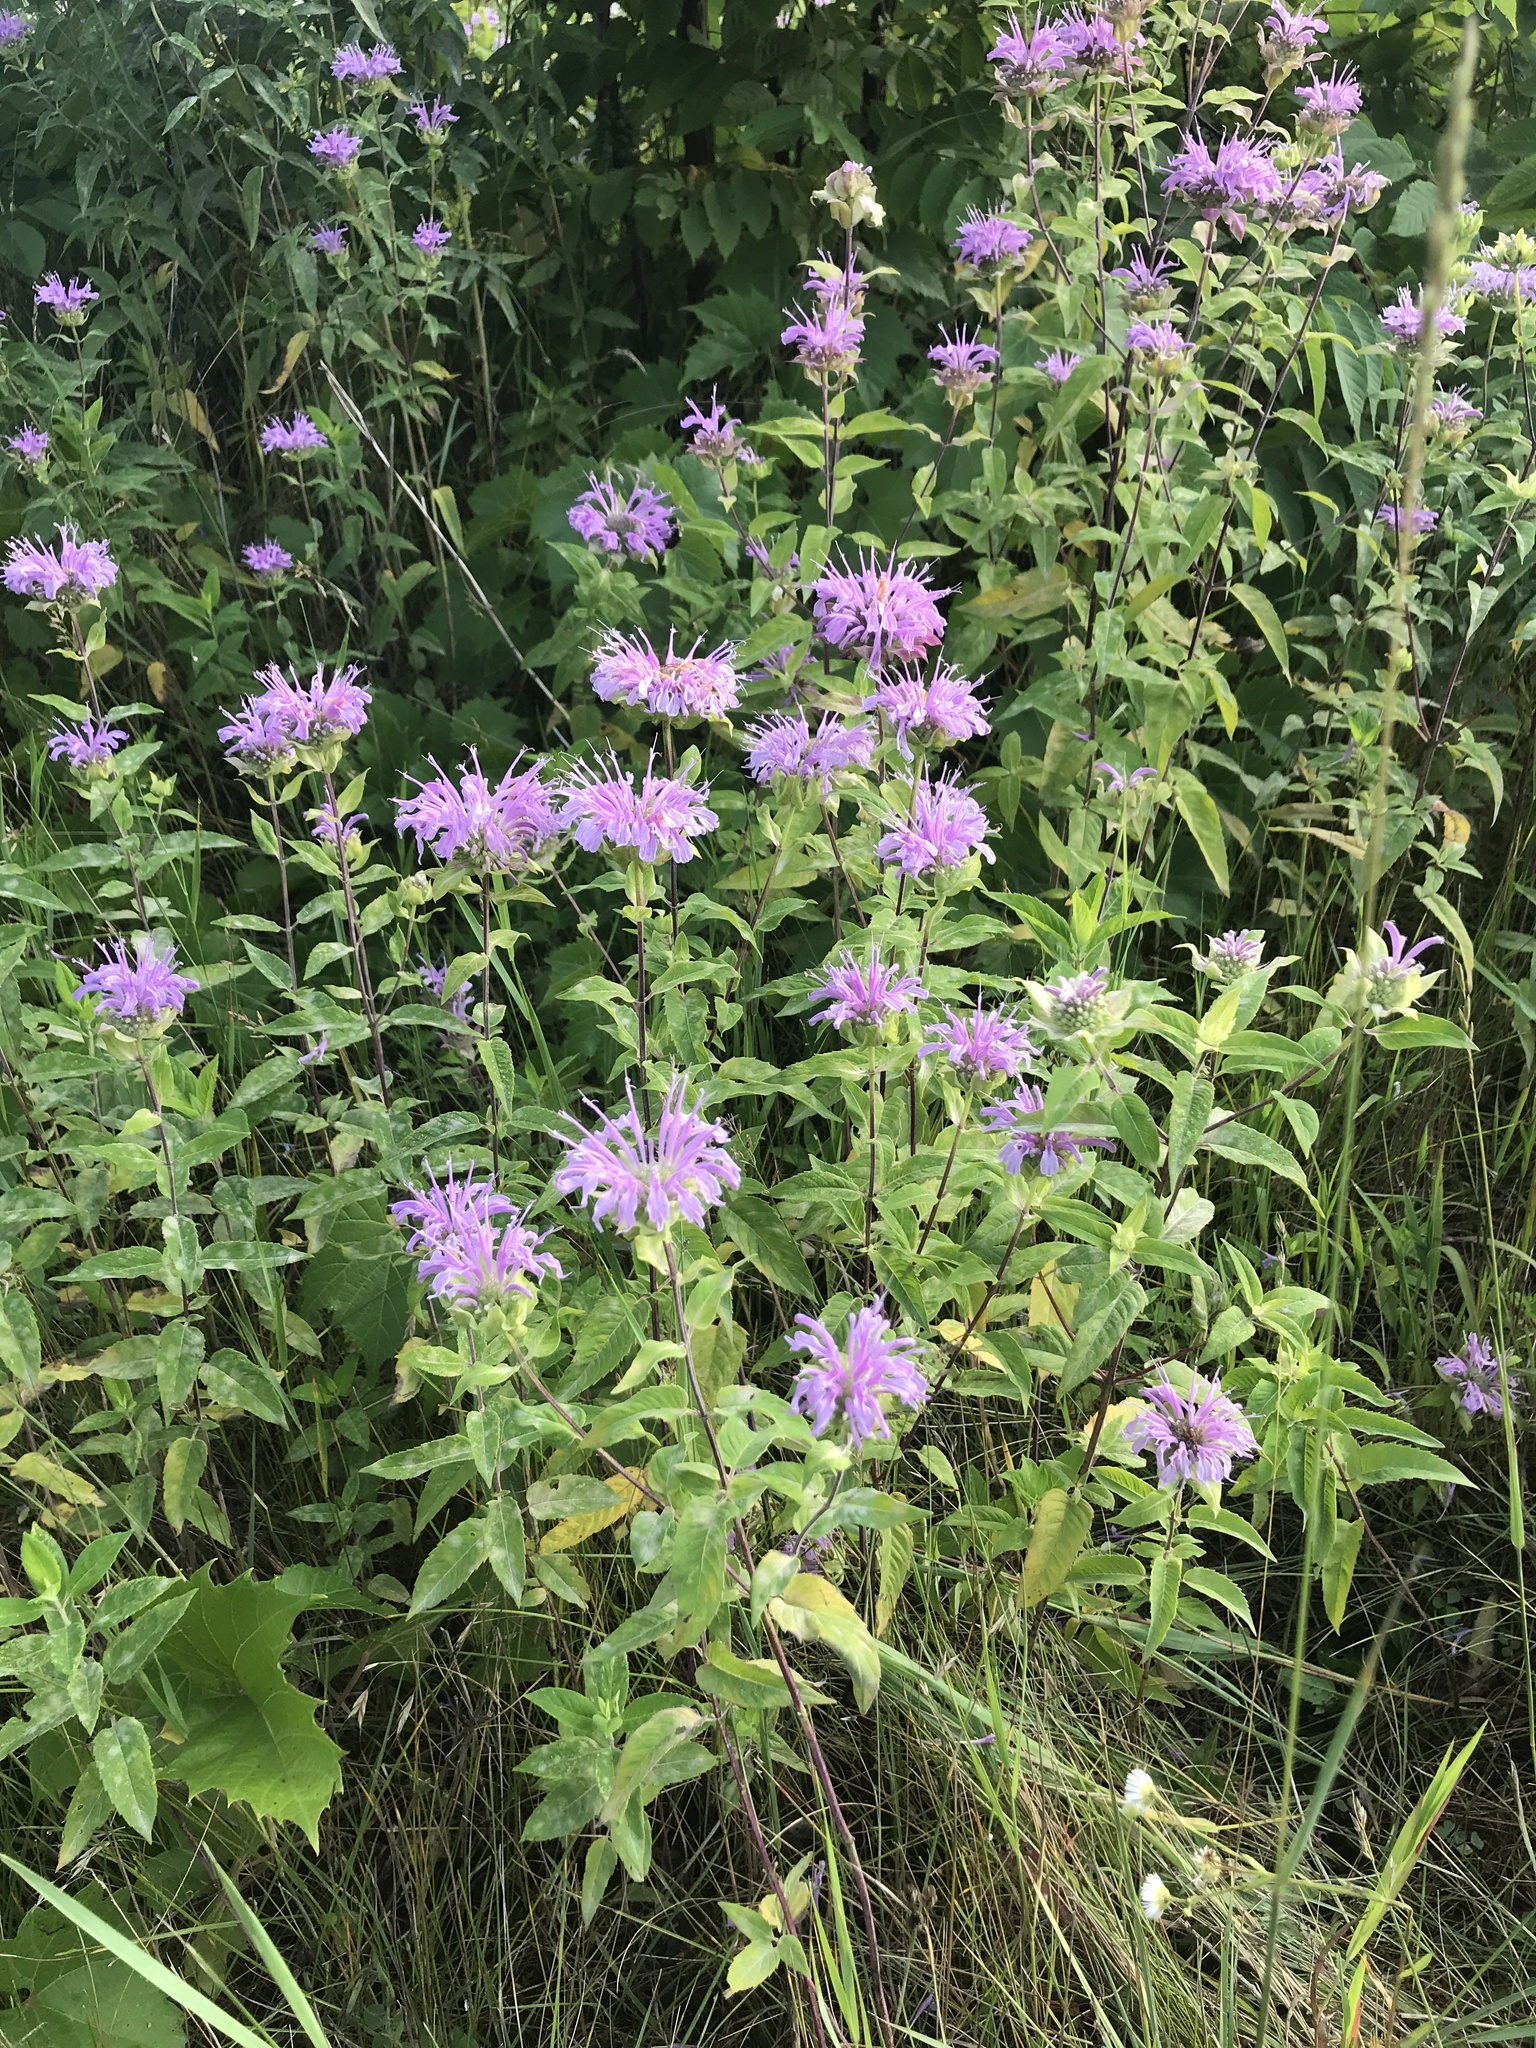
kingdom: Plantae
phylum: Tracheophyta
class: Magnoliopsida
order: Lamiales
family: Lamiaceae
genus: Monarda
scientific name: Monarda fistulosa
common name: Purple beebalm
